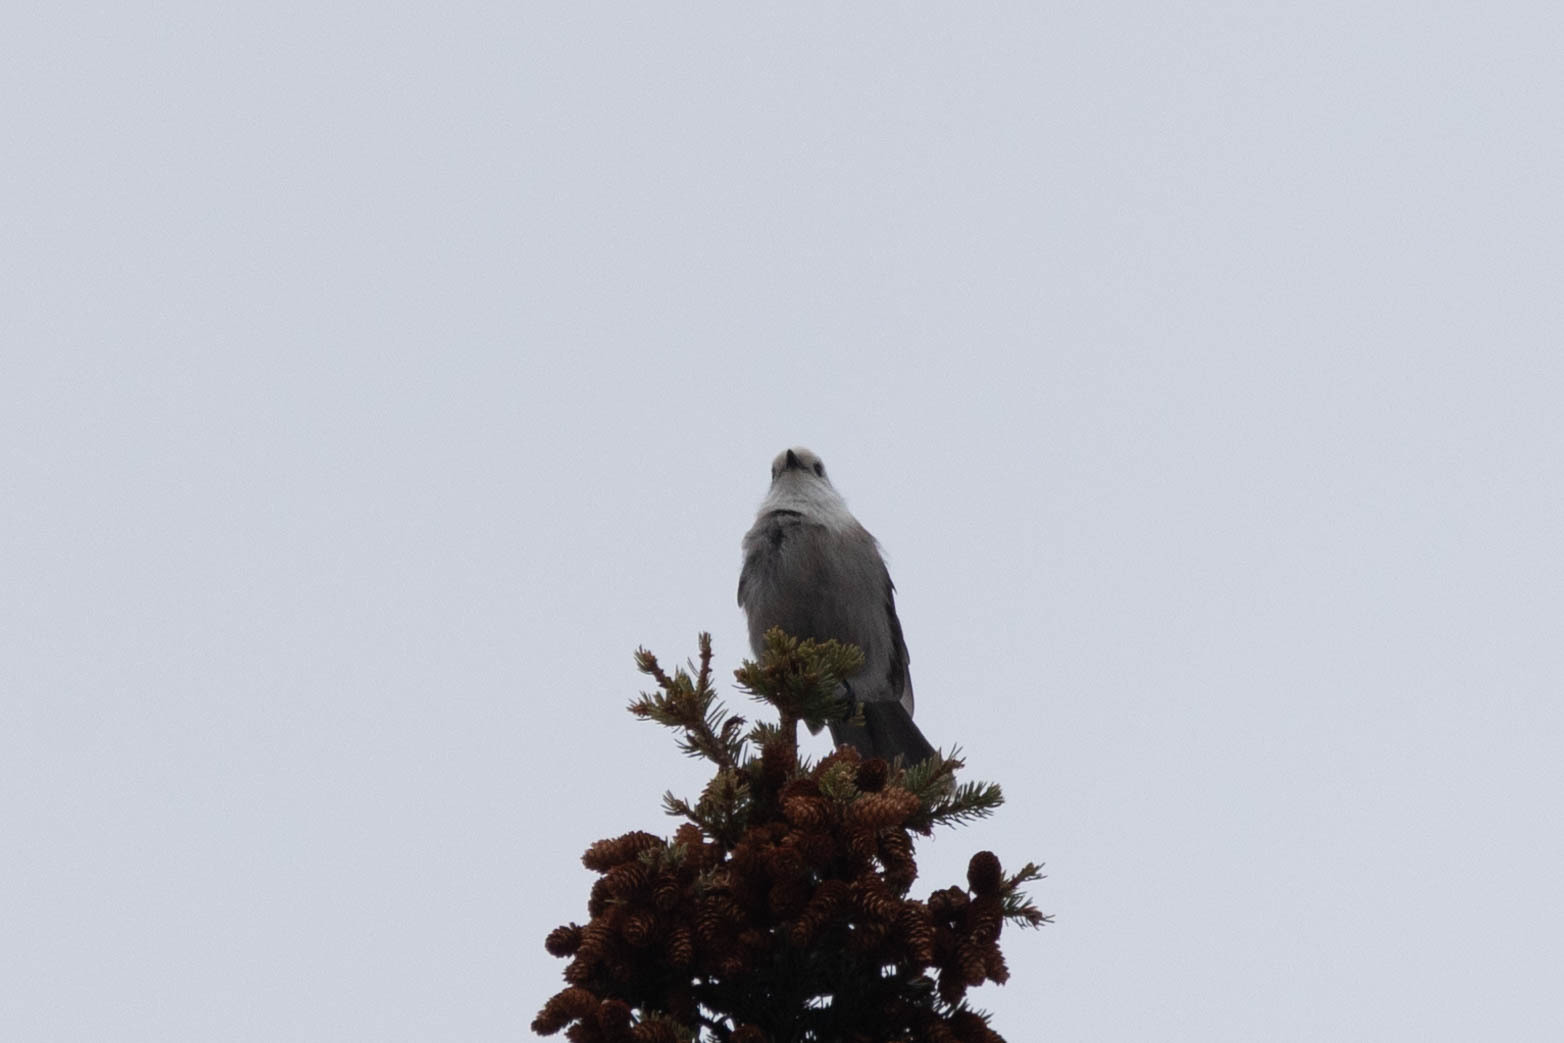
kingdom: Animalia
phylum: Chordata
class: Aves
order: Passeriformes
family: Corvidae
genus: Perisoreus
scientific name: Perisoreus canadensis
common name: Gray jay
